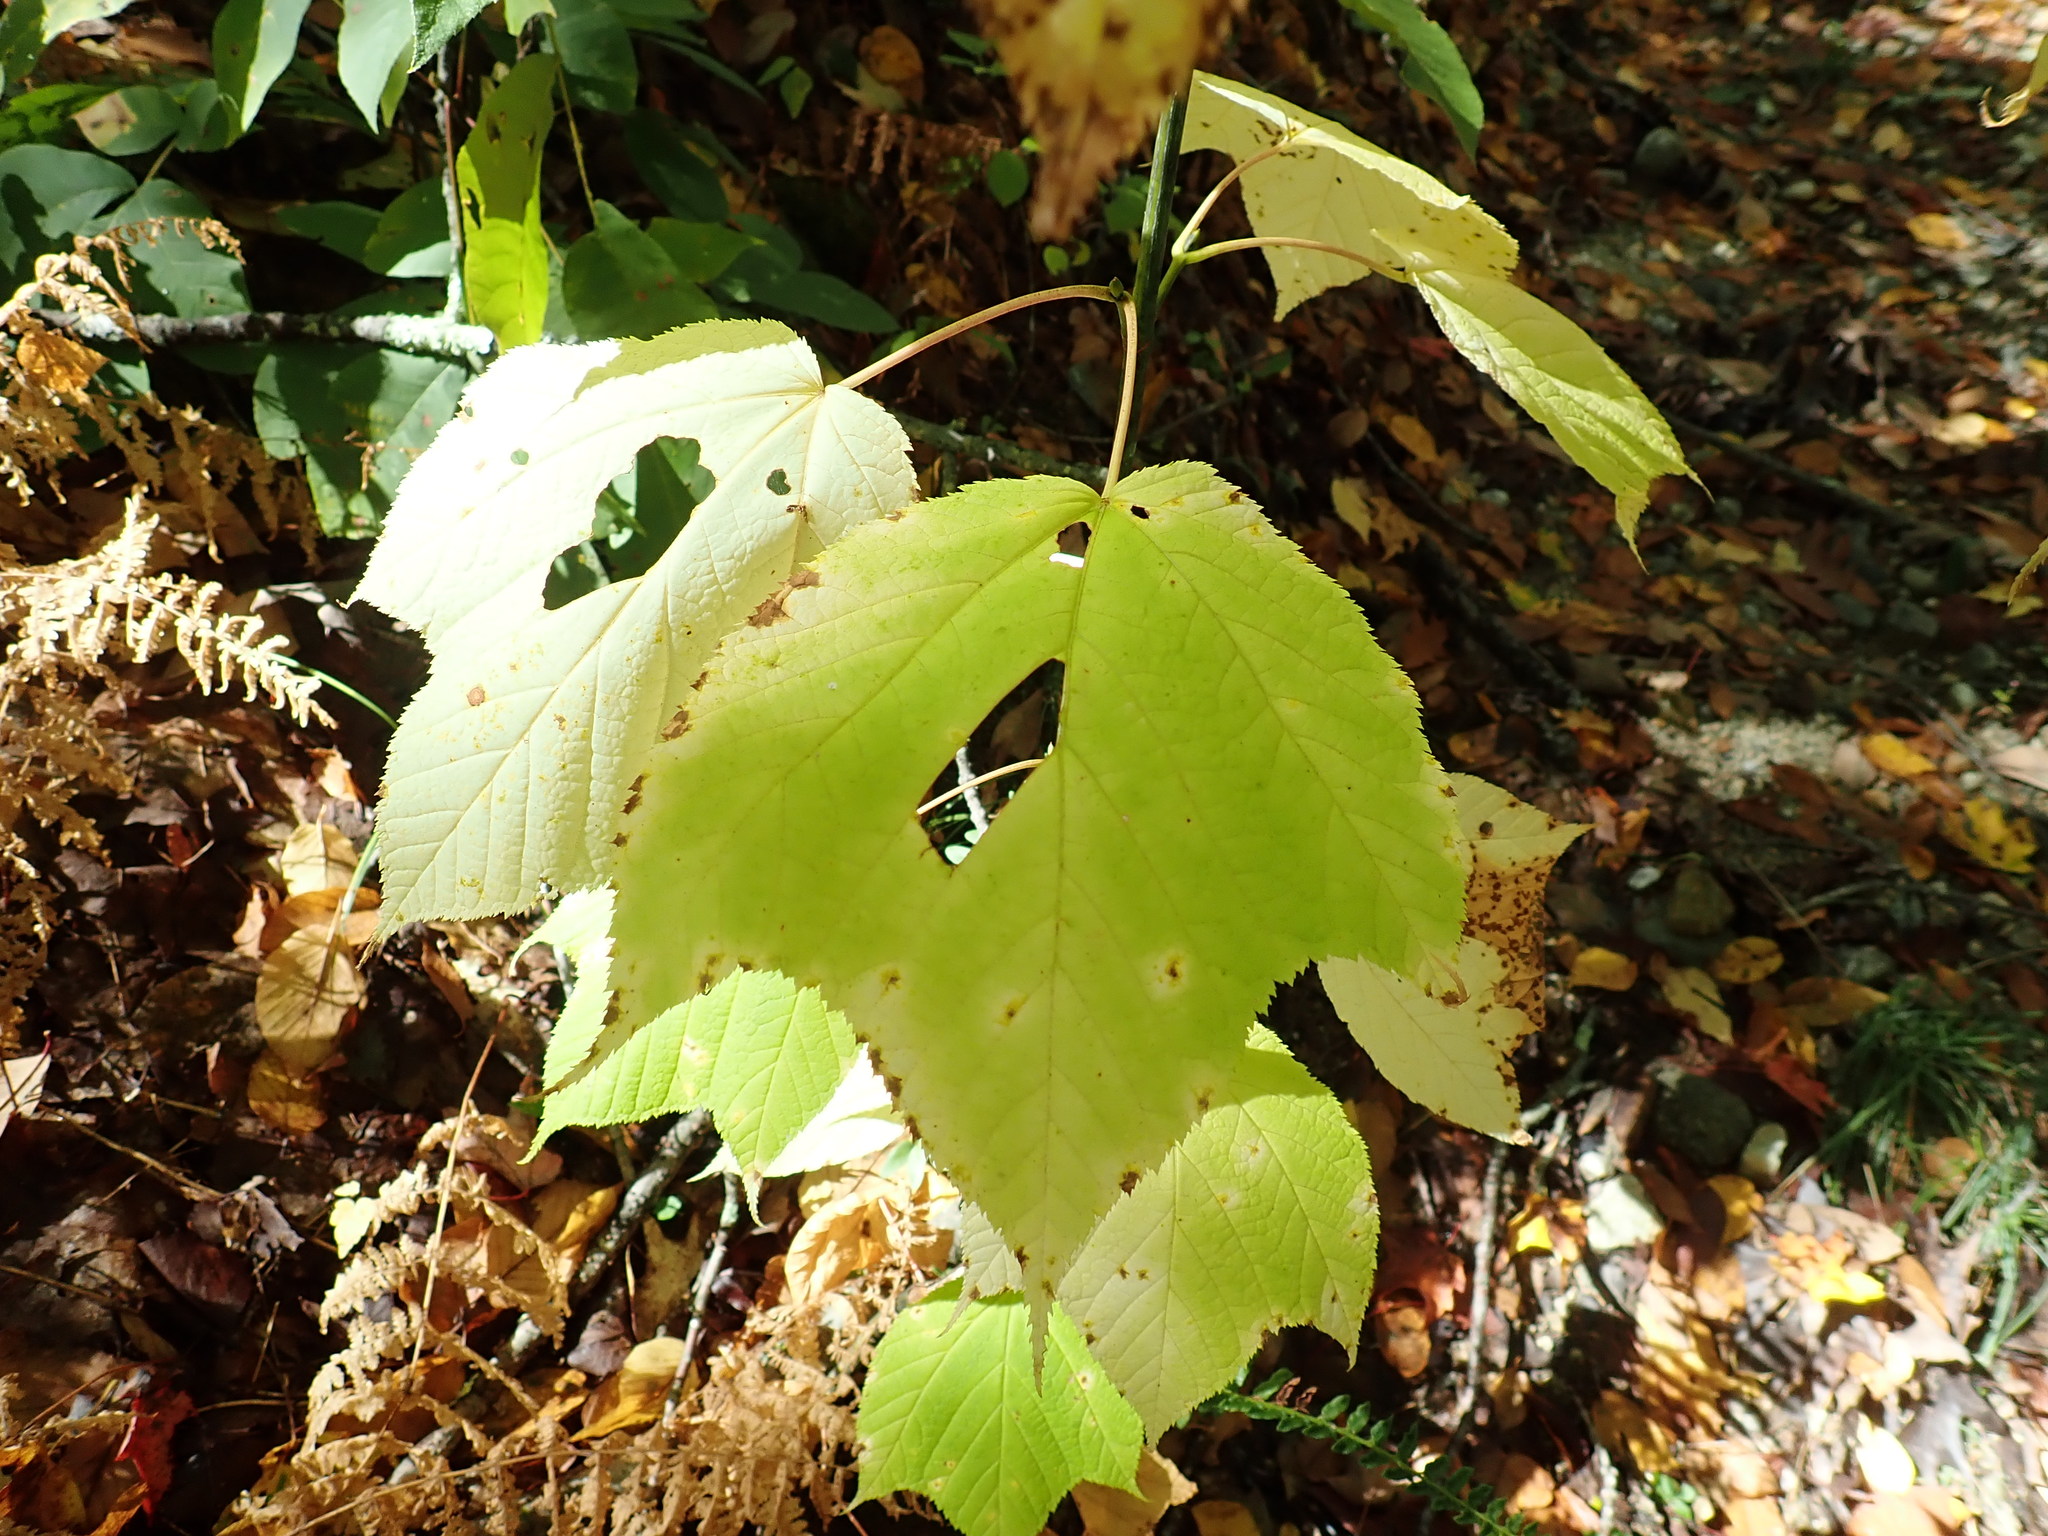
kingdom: Plantae
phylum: Tracheophyta
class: Magnoliopsida
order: Sapindales
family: Sapindaceae
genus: Acer
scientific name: Acer pensylvanicum
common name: Moosewood
